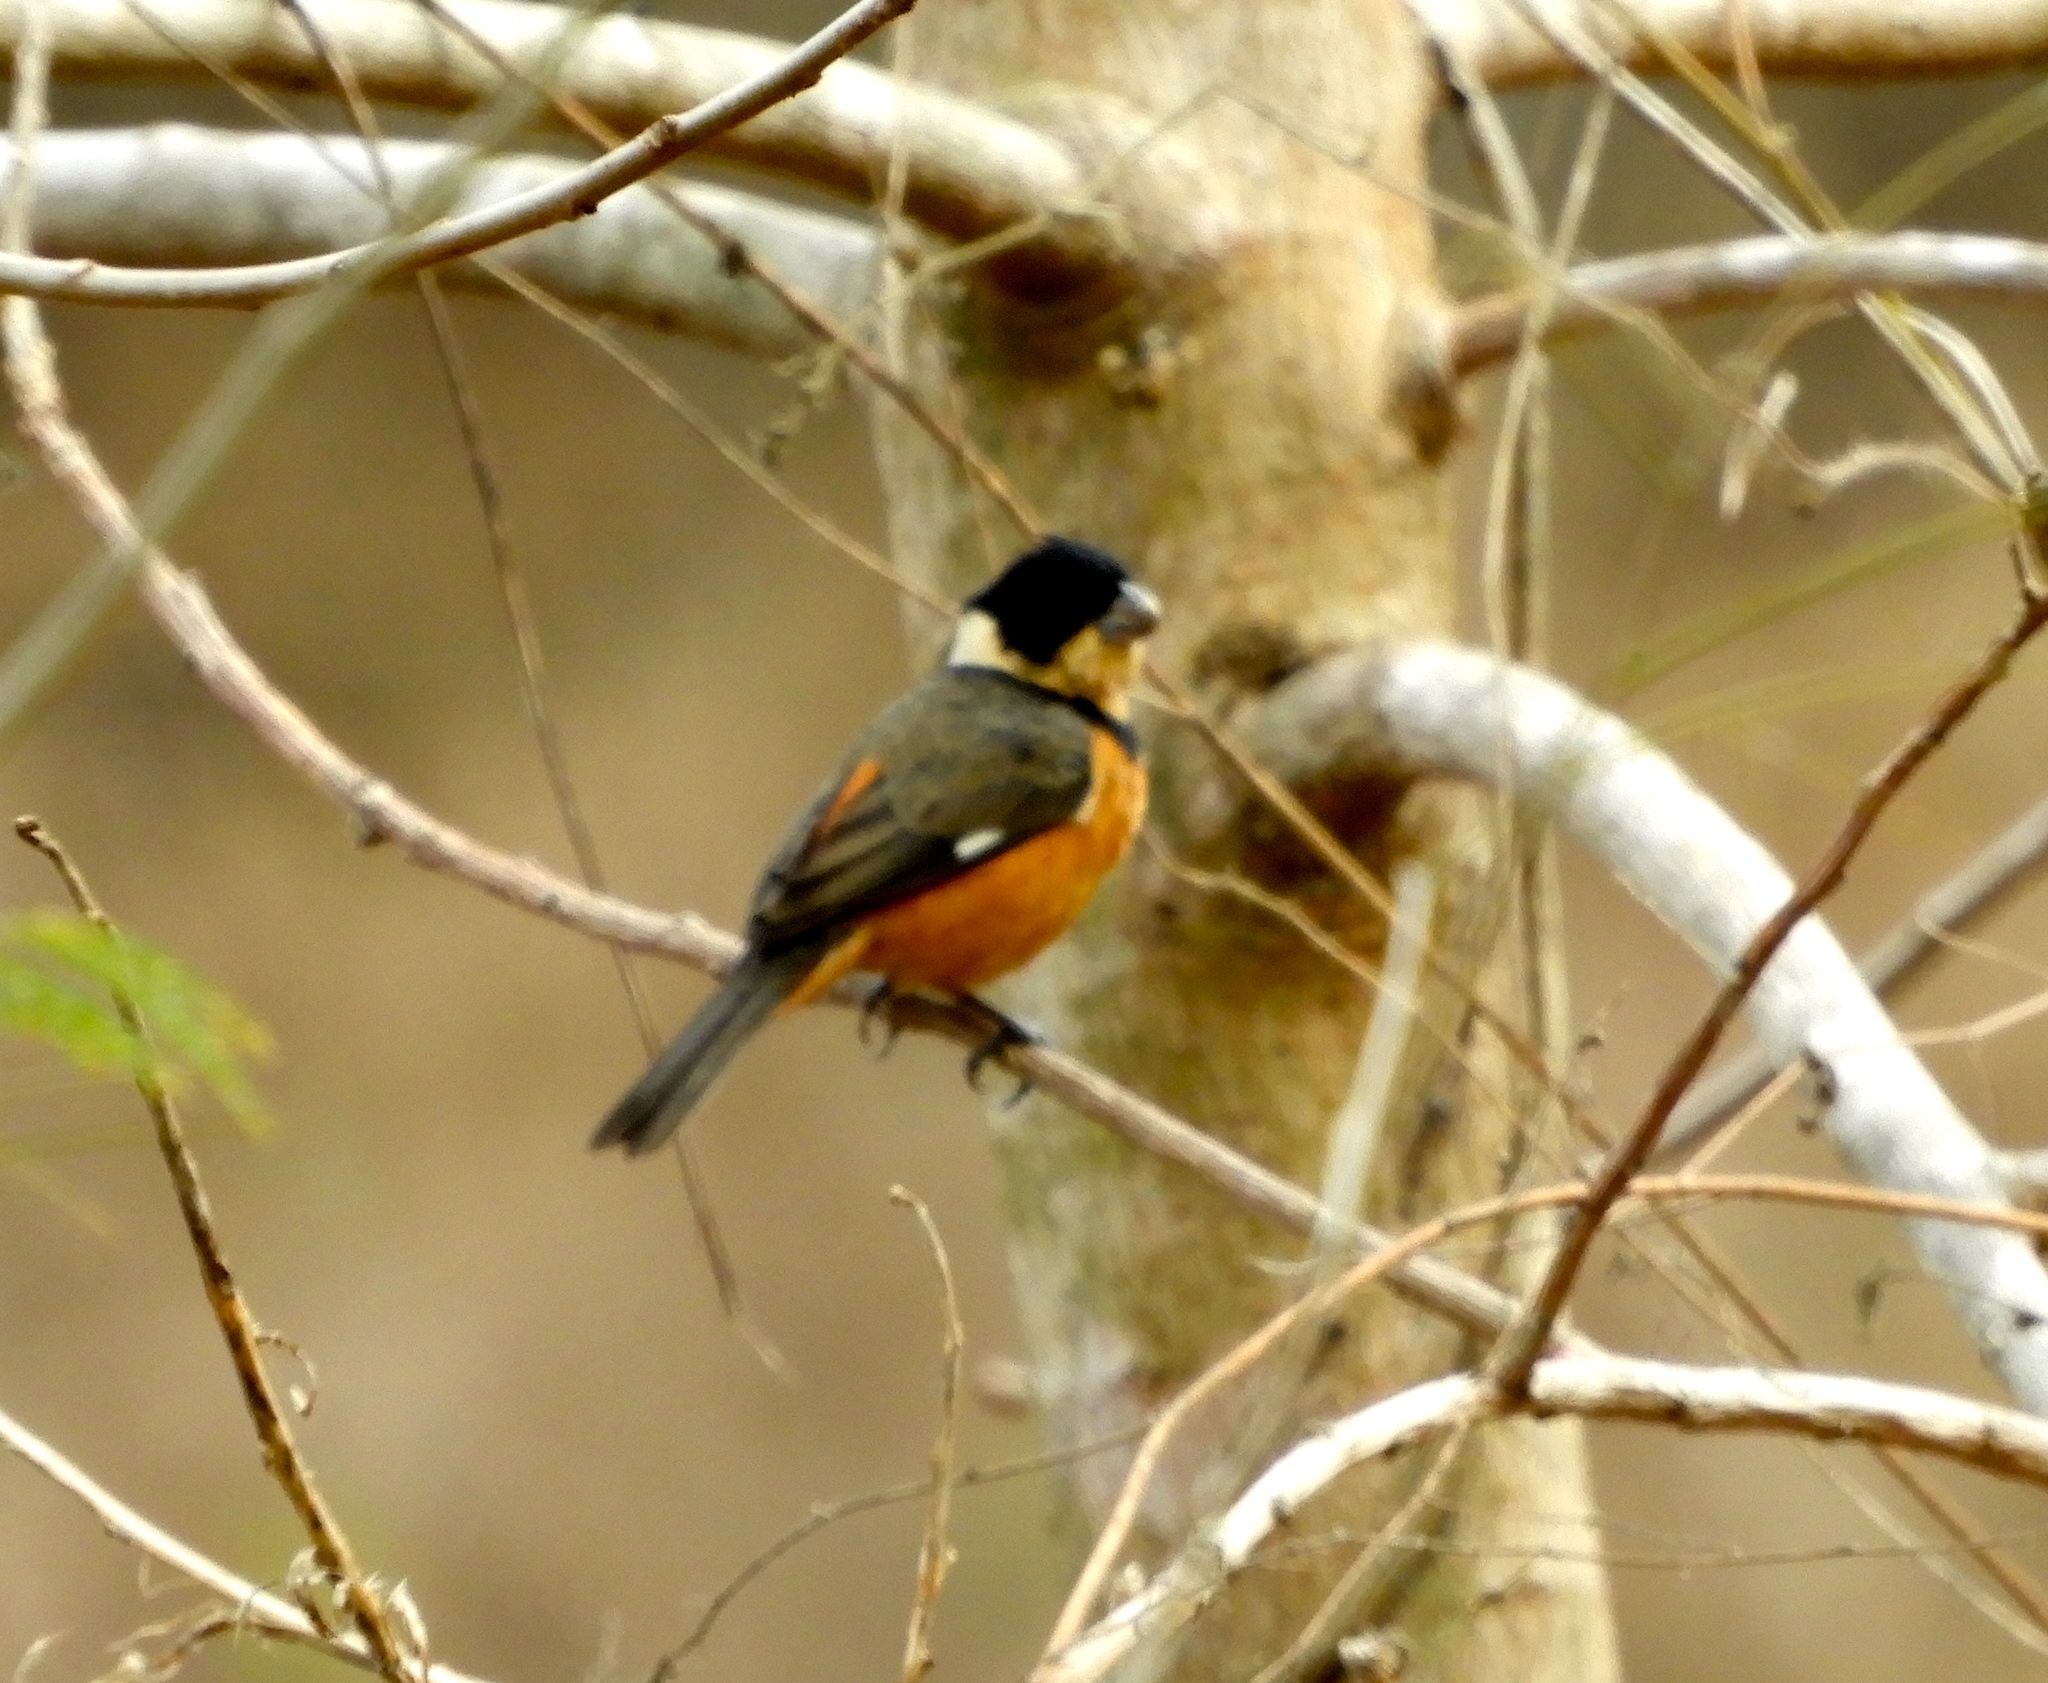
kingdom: Animalia
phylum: Chordata
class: Aves
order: Passeriformes
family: Thraupidae
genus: Sporophila
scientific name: Sporophila torqueola
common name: White-collared seedeater
